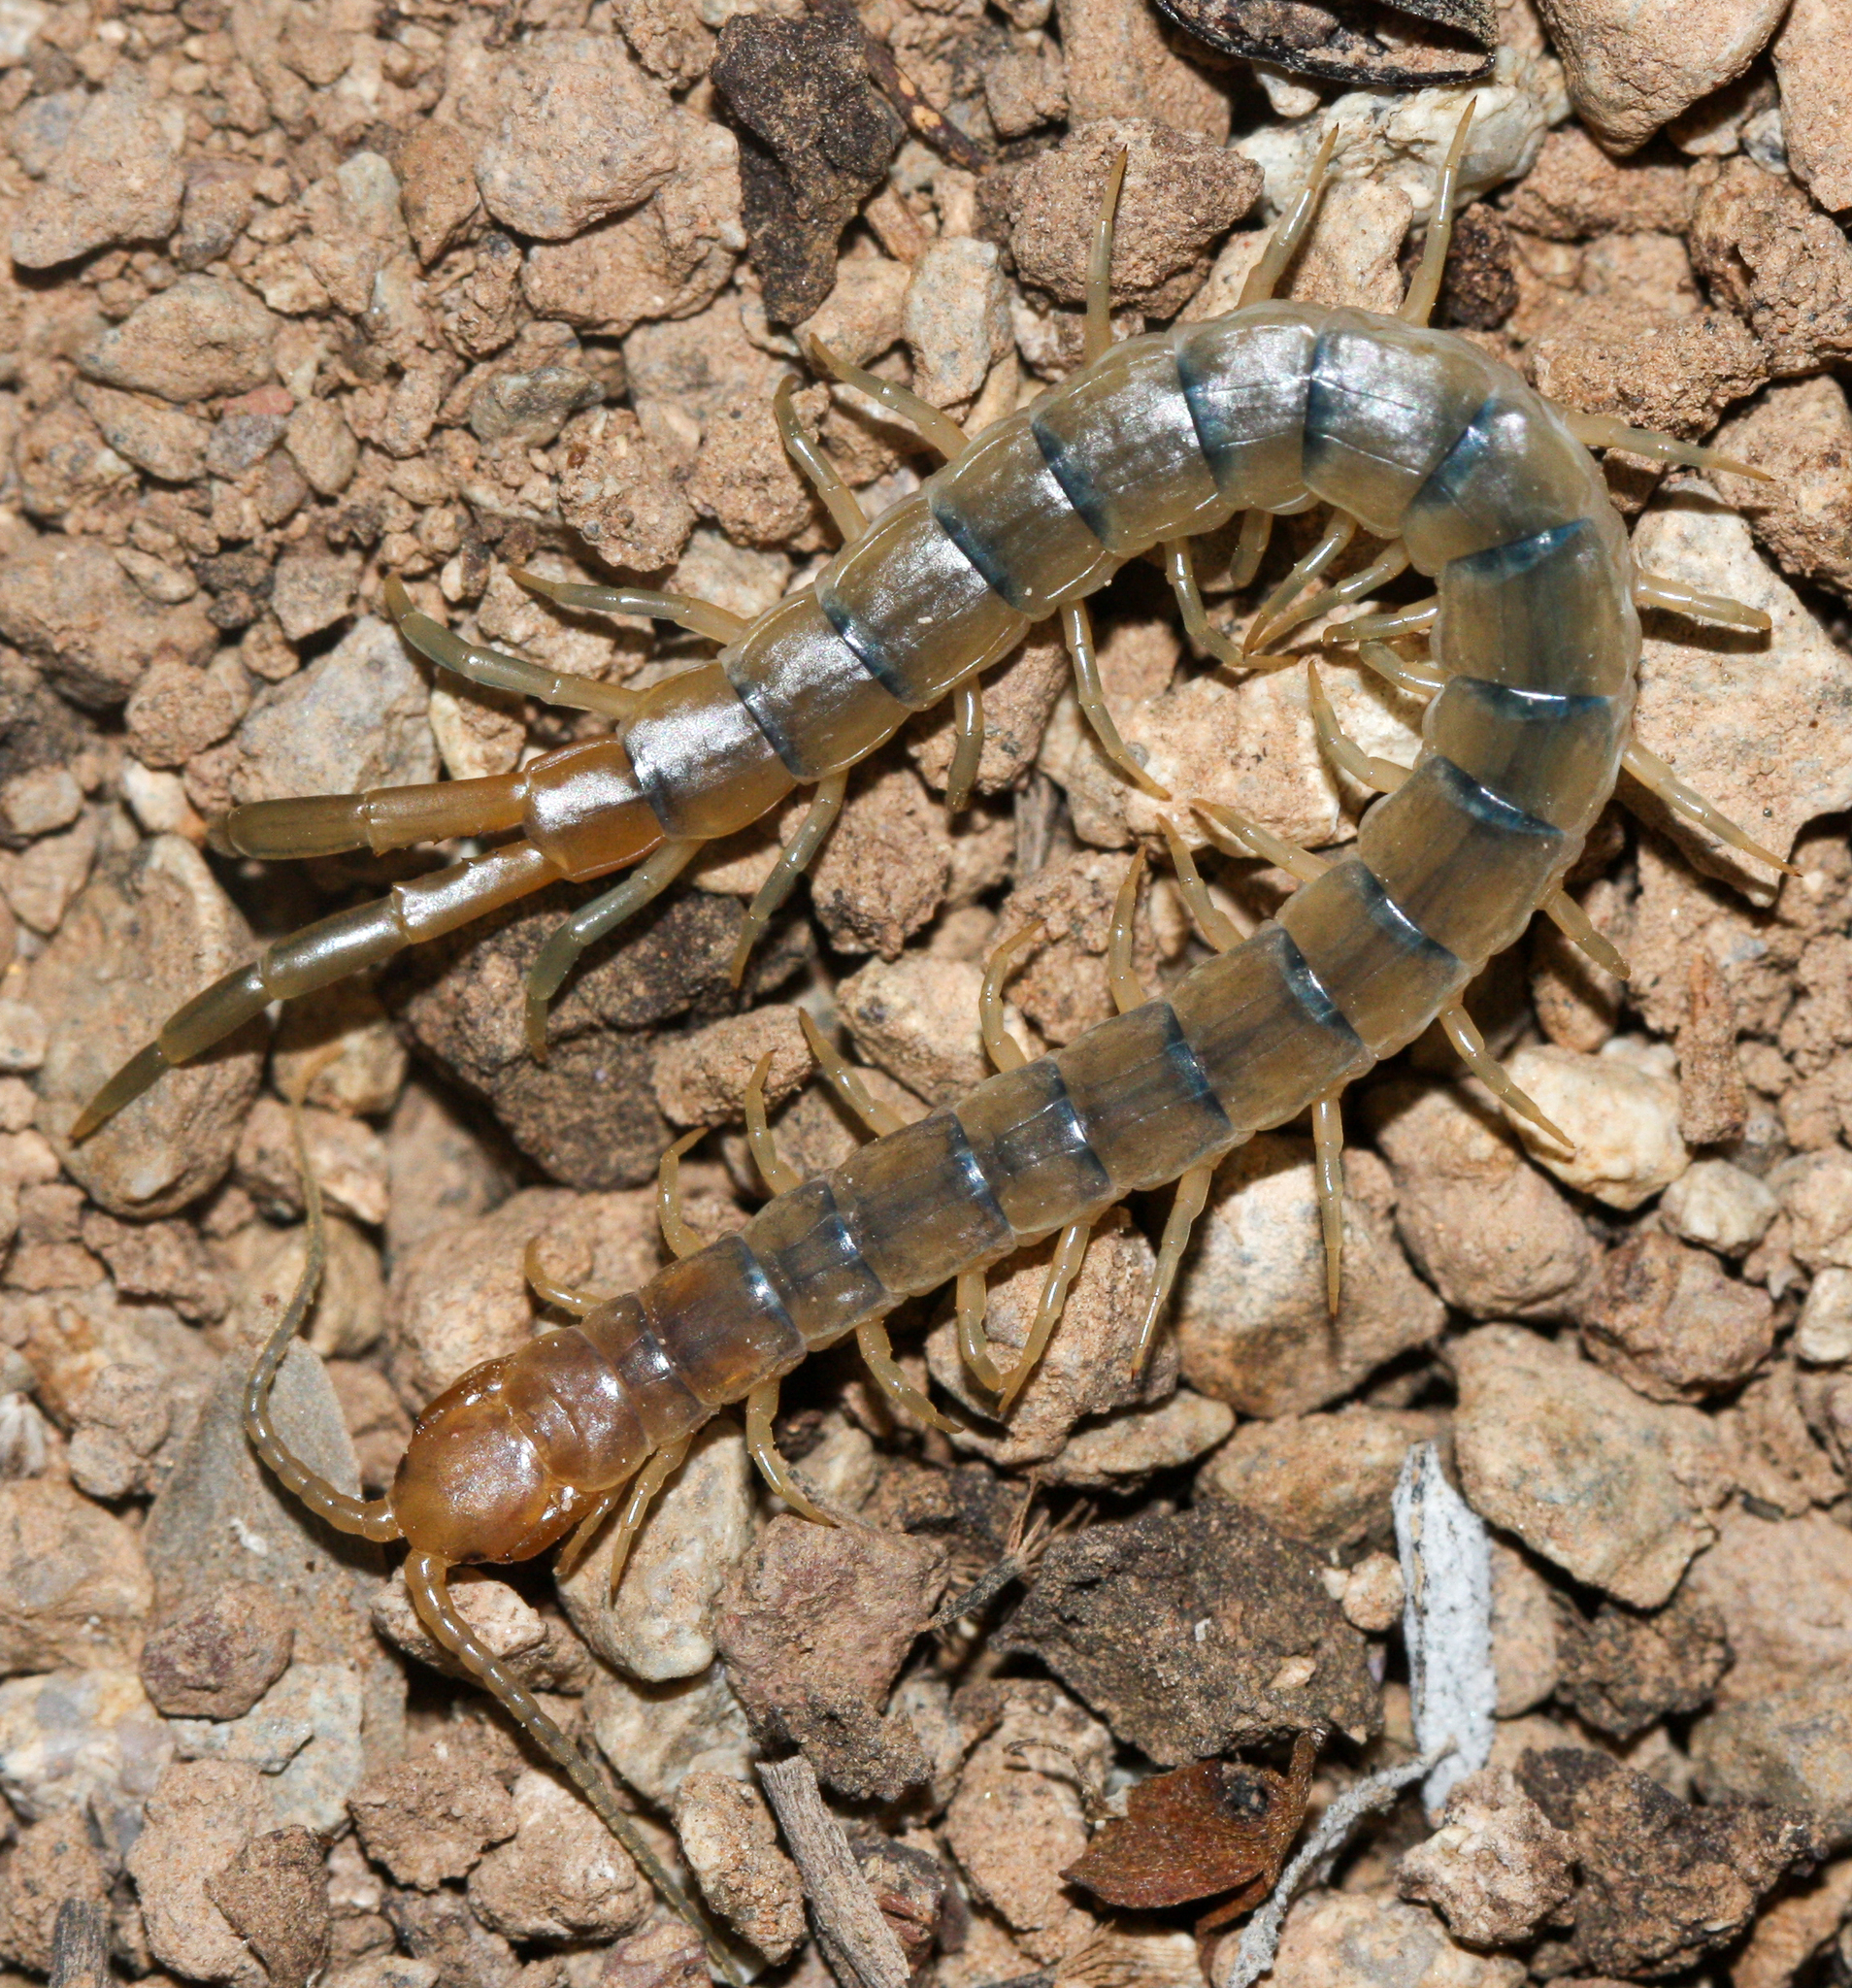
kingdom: Animalia
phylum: Arthropoda
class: Chilopoda
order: Scolopendromorpha
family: Scolopendridae
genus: Scolopendra
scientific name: Scolopendra polymorpha
